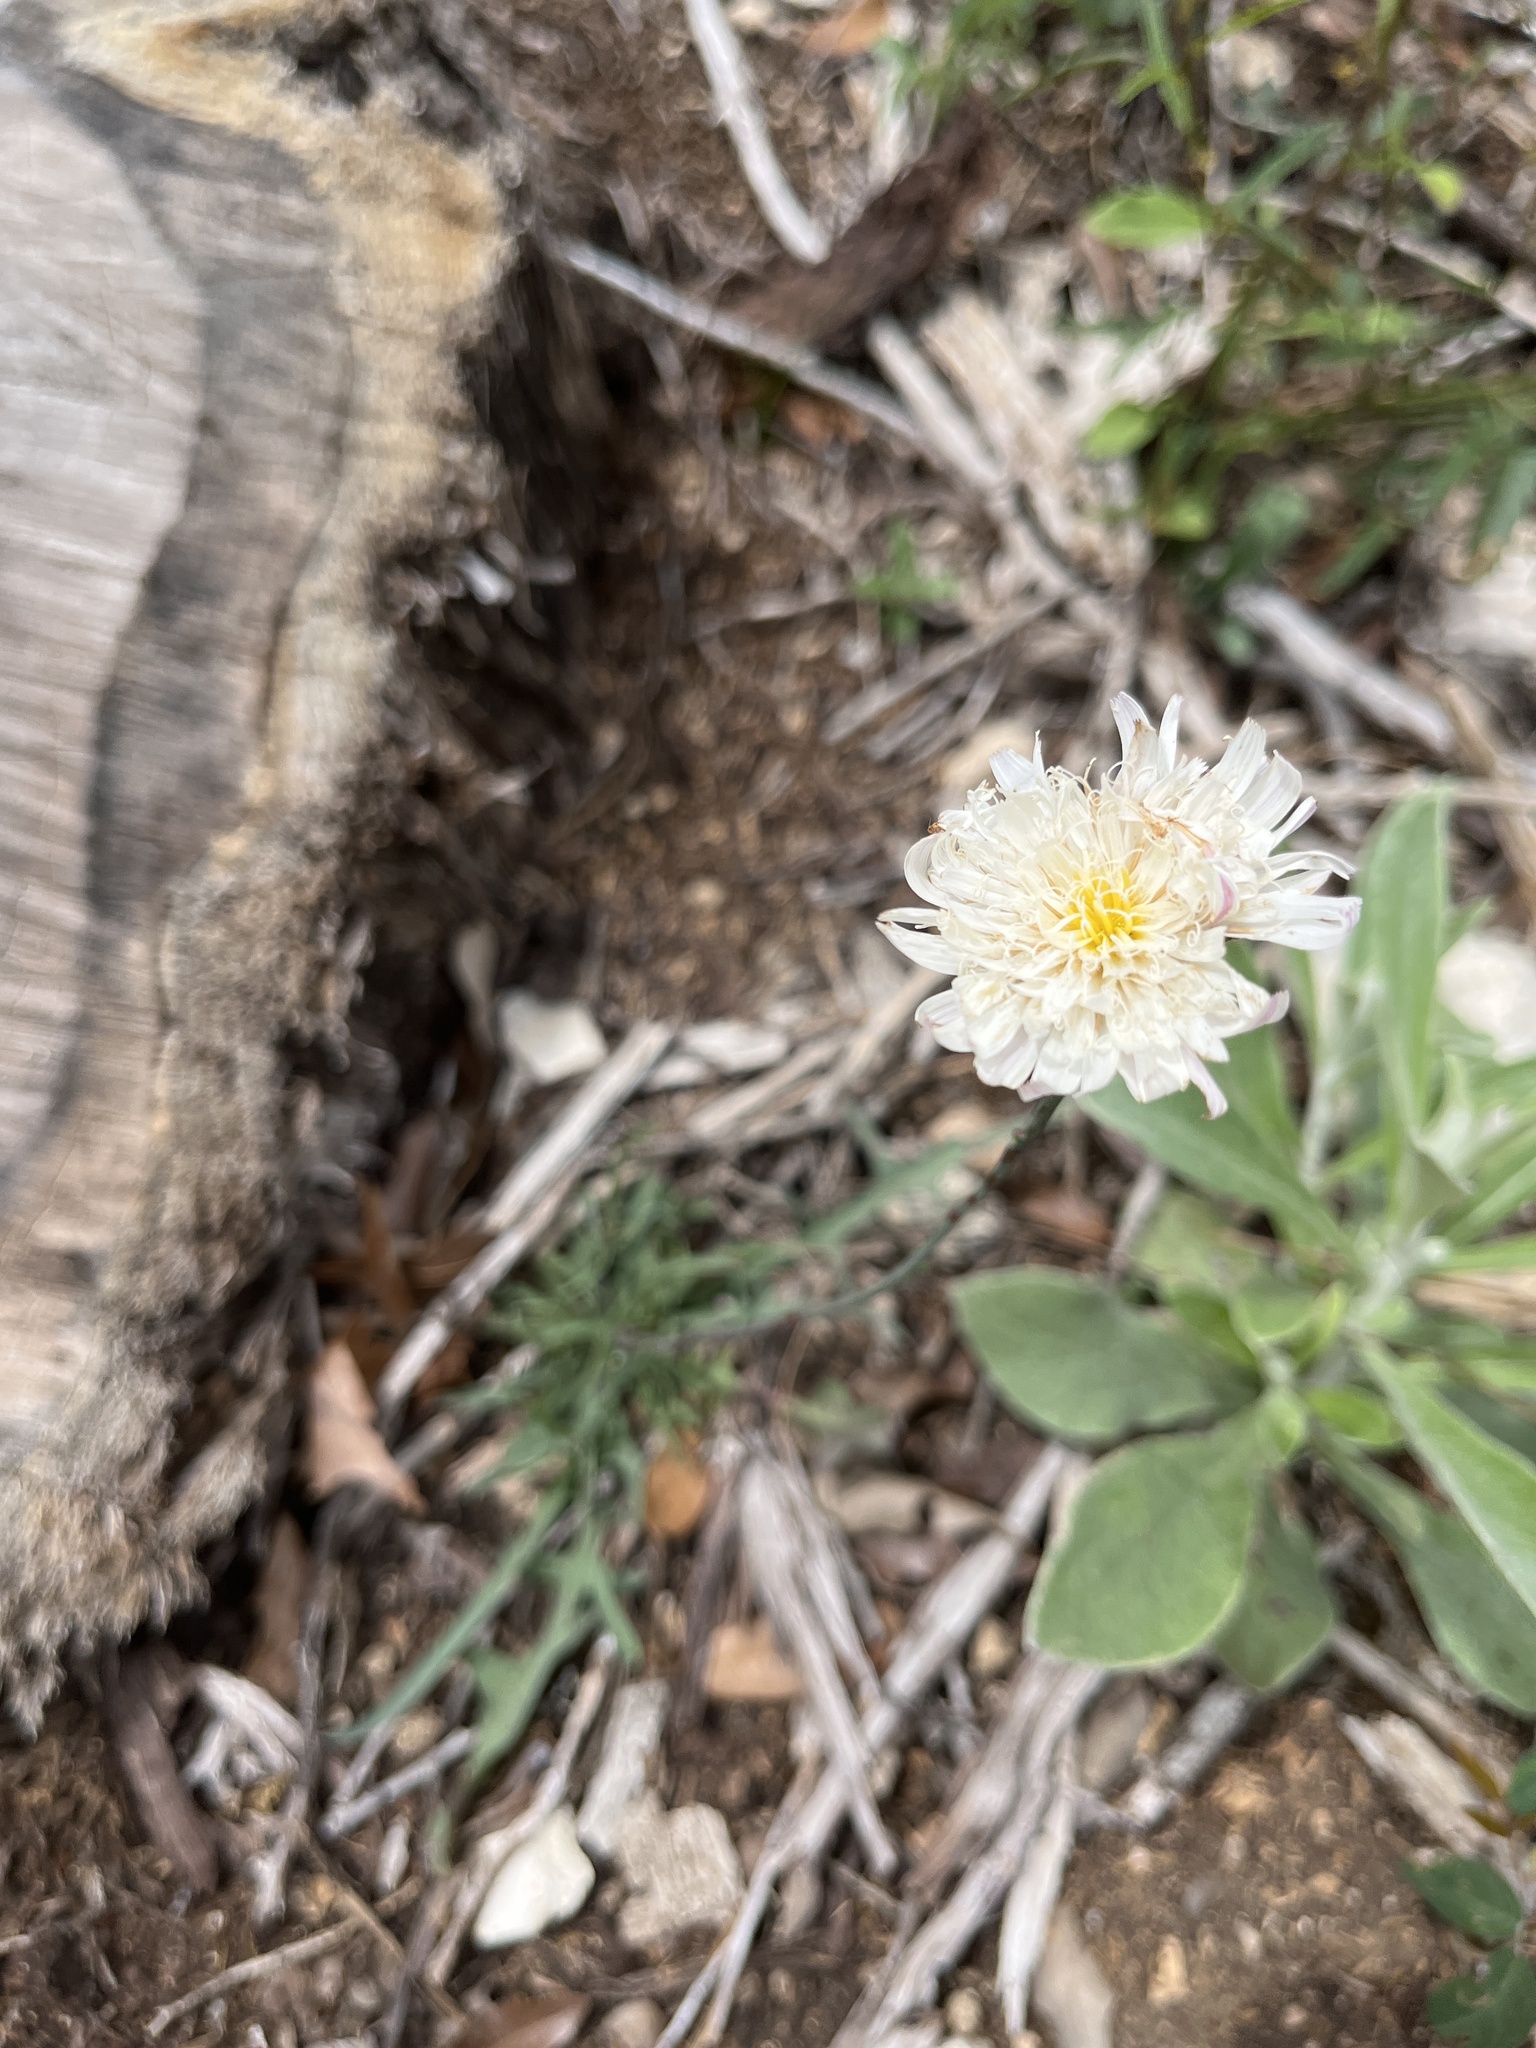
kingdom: Plantae
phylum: Tracheophyta
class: Magnoliopsida
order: Asterales
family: Asteraceae
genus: Pinaropappus
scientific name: Pinaropappus roseus
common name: Rock-lettuce
